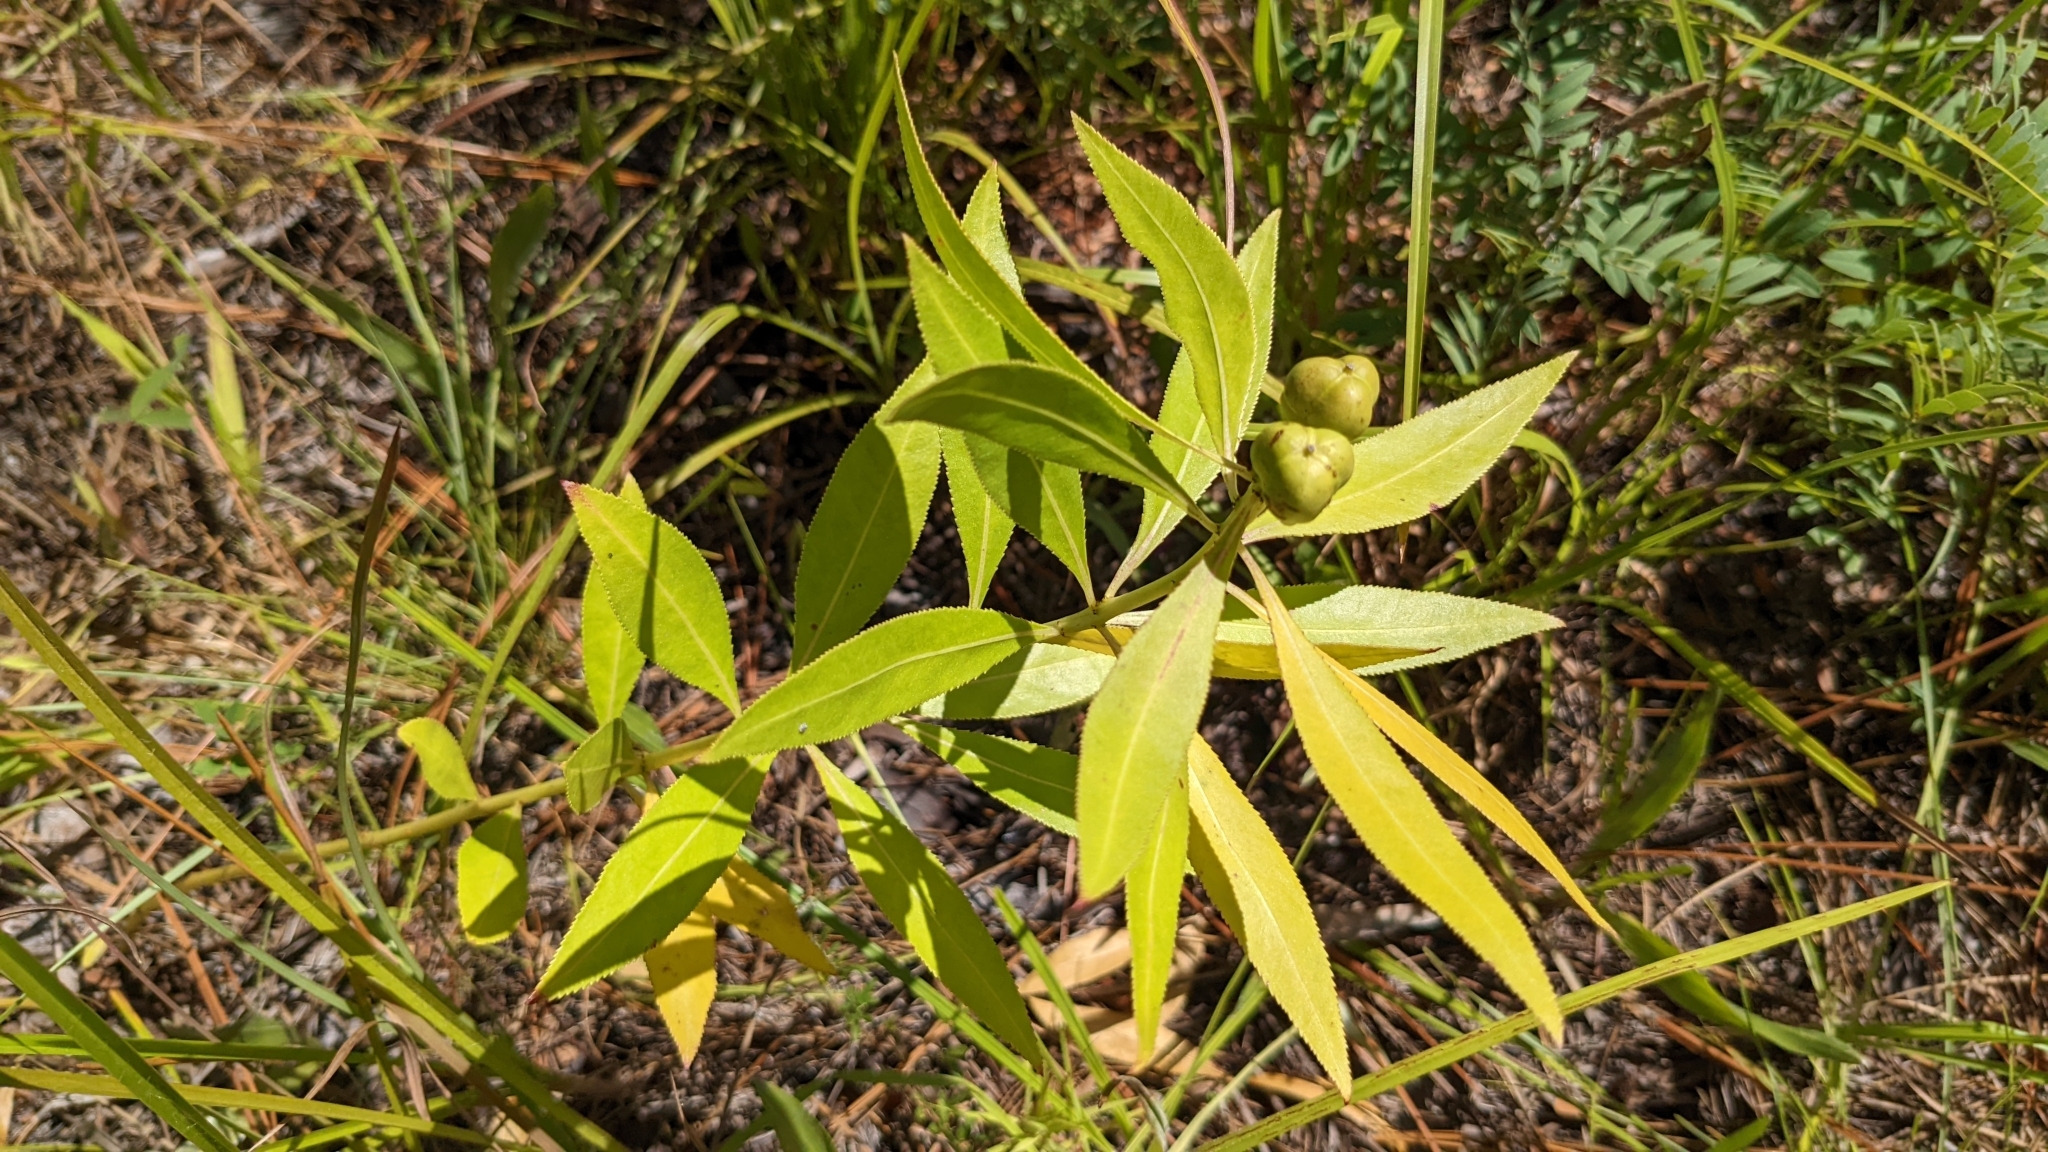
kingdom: Plantae
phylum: Tracheophyta
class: Magnoliopsida
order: Malpighiales
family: Euphorbiaceae
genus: Stillingia
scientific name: Stillingia sylvatica
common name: Queen's-delight
